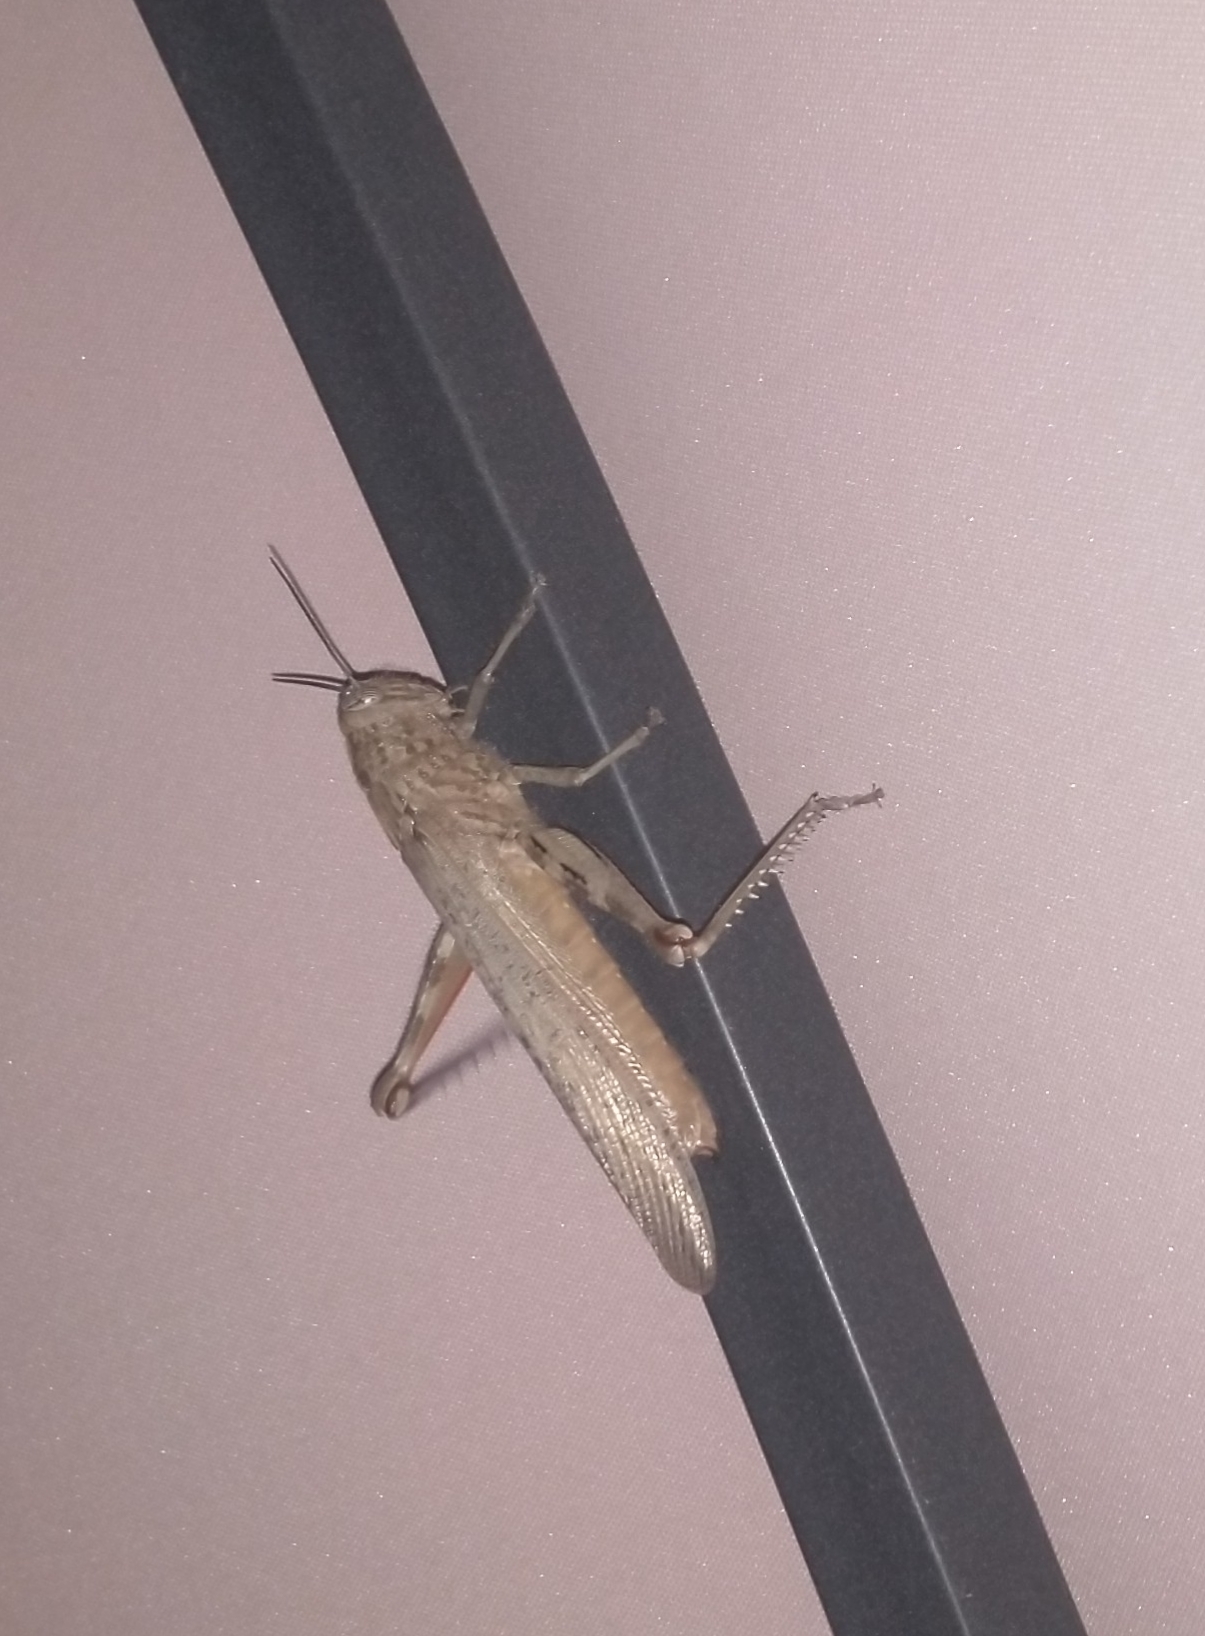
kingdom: Animalia
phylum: Arthropoda
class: Insecta
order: Orthoptera
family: Acrididae
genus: Anacridium
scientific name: Anacridium aegyptium
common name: Egyptian grasshopper
